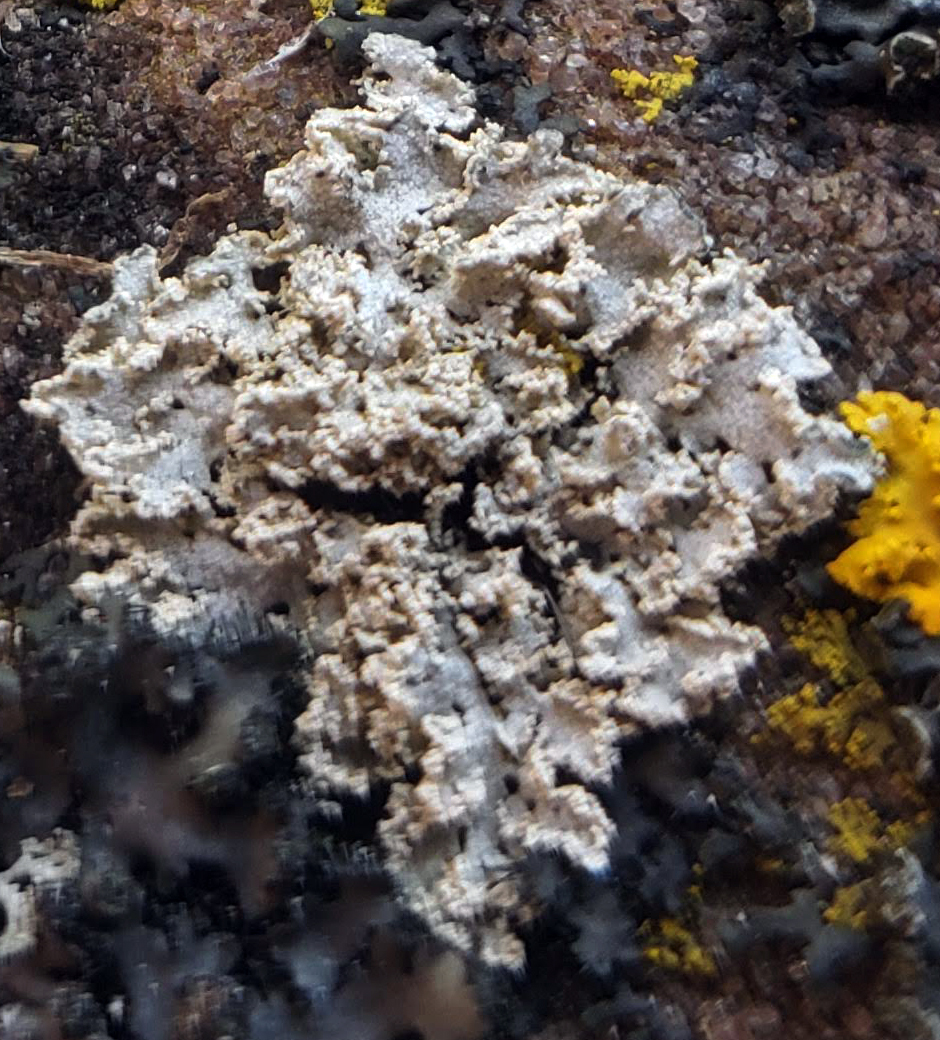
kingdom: Fungi
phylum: Ascomycota
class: Lecanoromycetes
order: Caliciales
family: Physciaceae
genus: Physcia
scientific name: Physcia millegrana
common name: Rosette lichen
